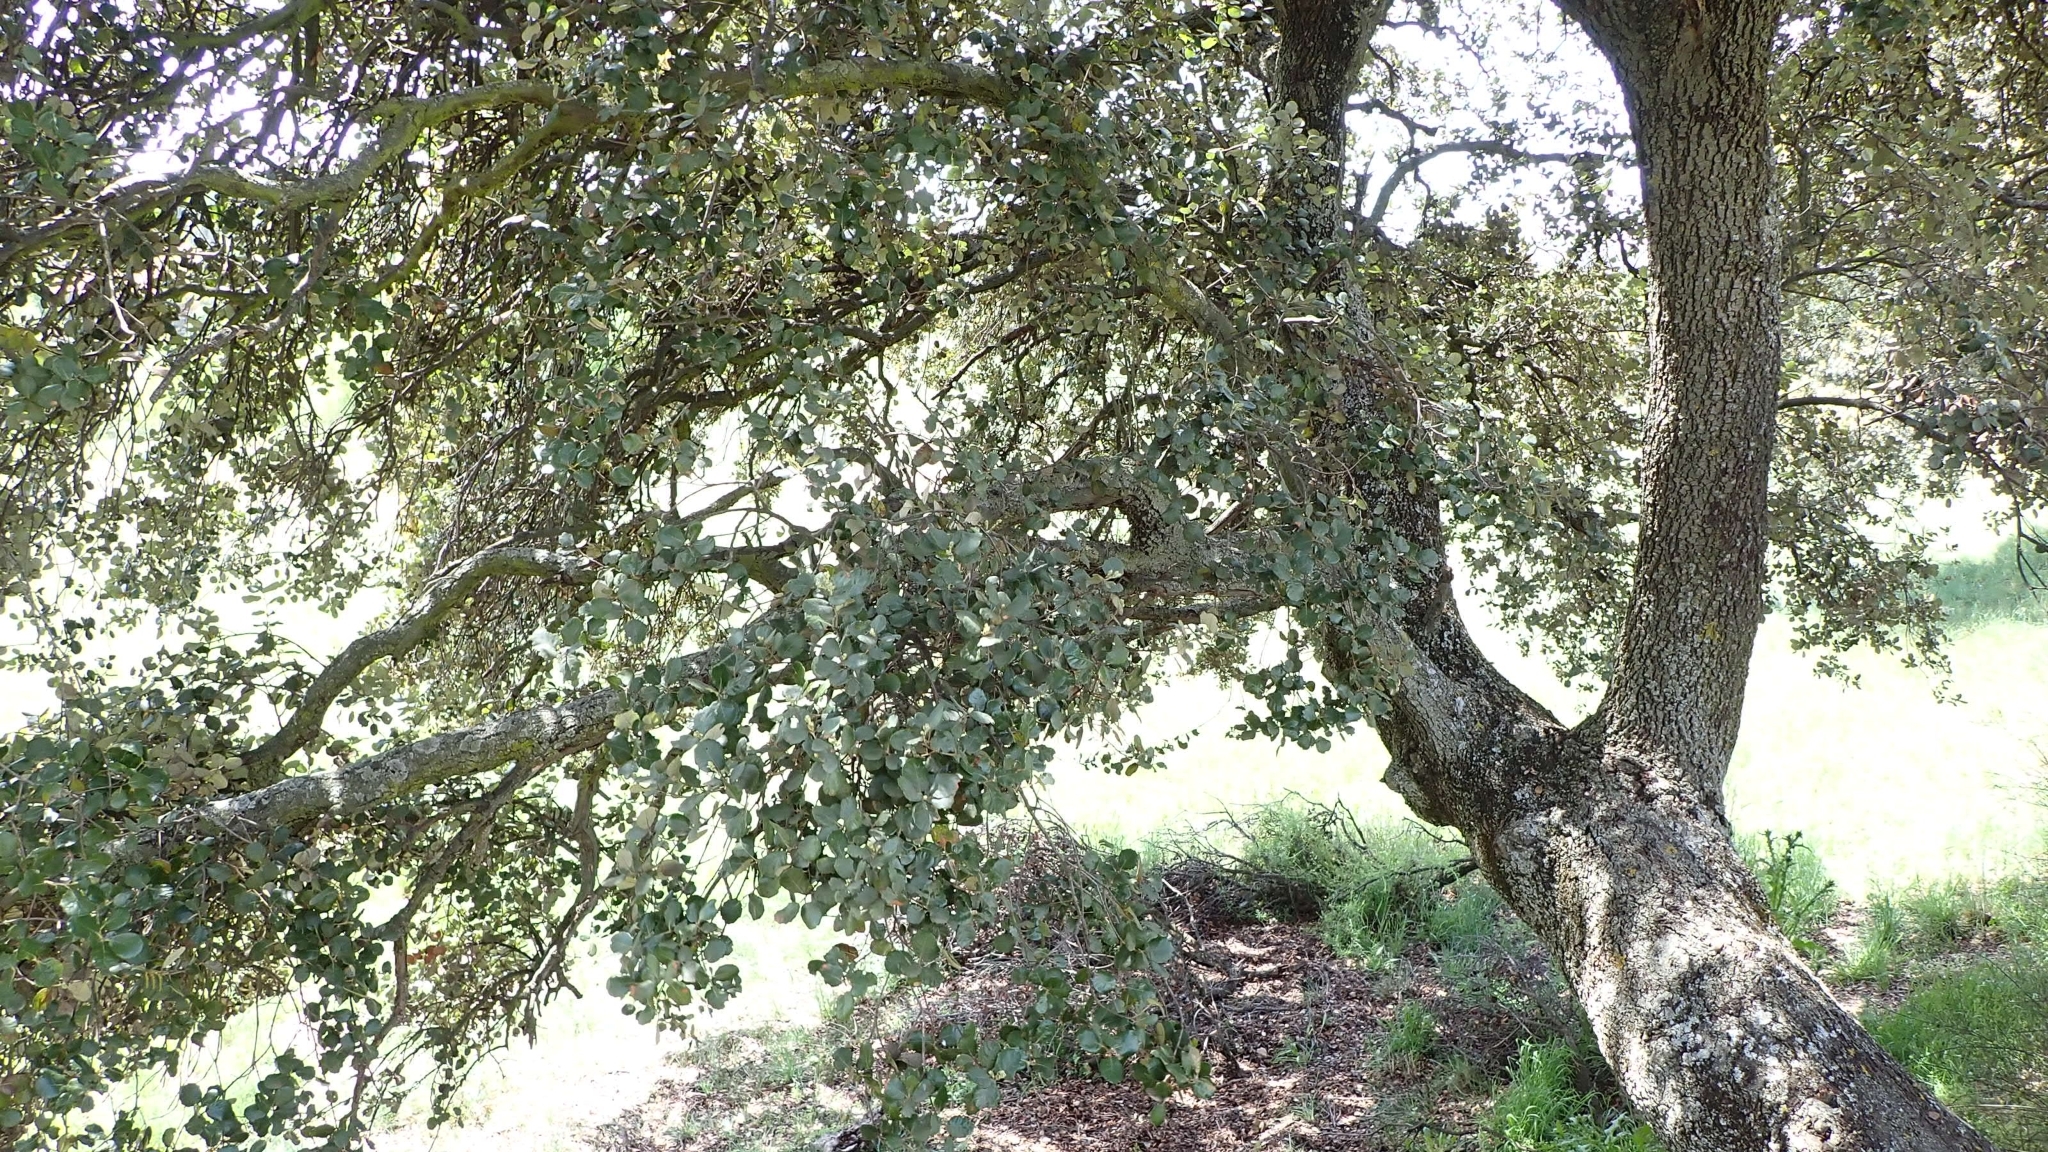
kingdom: Plantae
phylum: Tracheophyta
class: Magnoliopsida
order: Fagales
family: Fagaceae
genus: Quercus
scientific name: Quercus rotundifolia
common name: Holm oak
